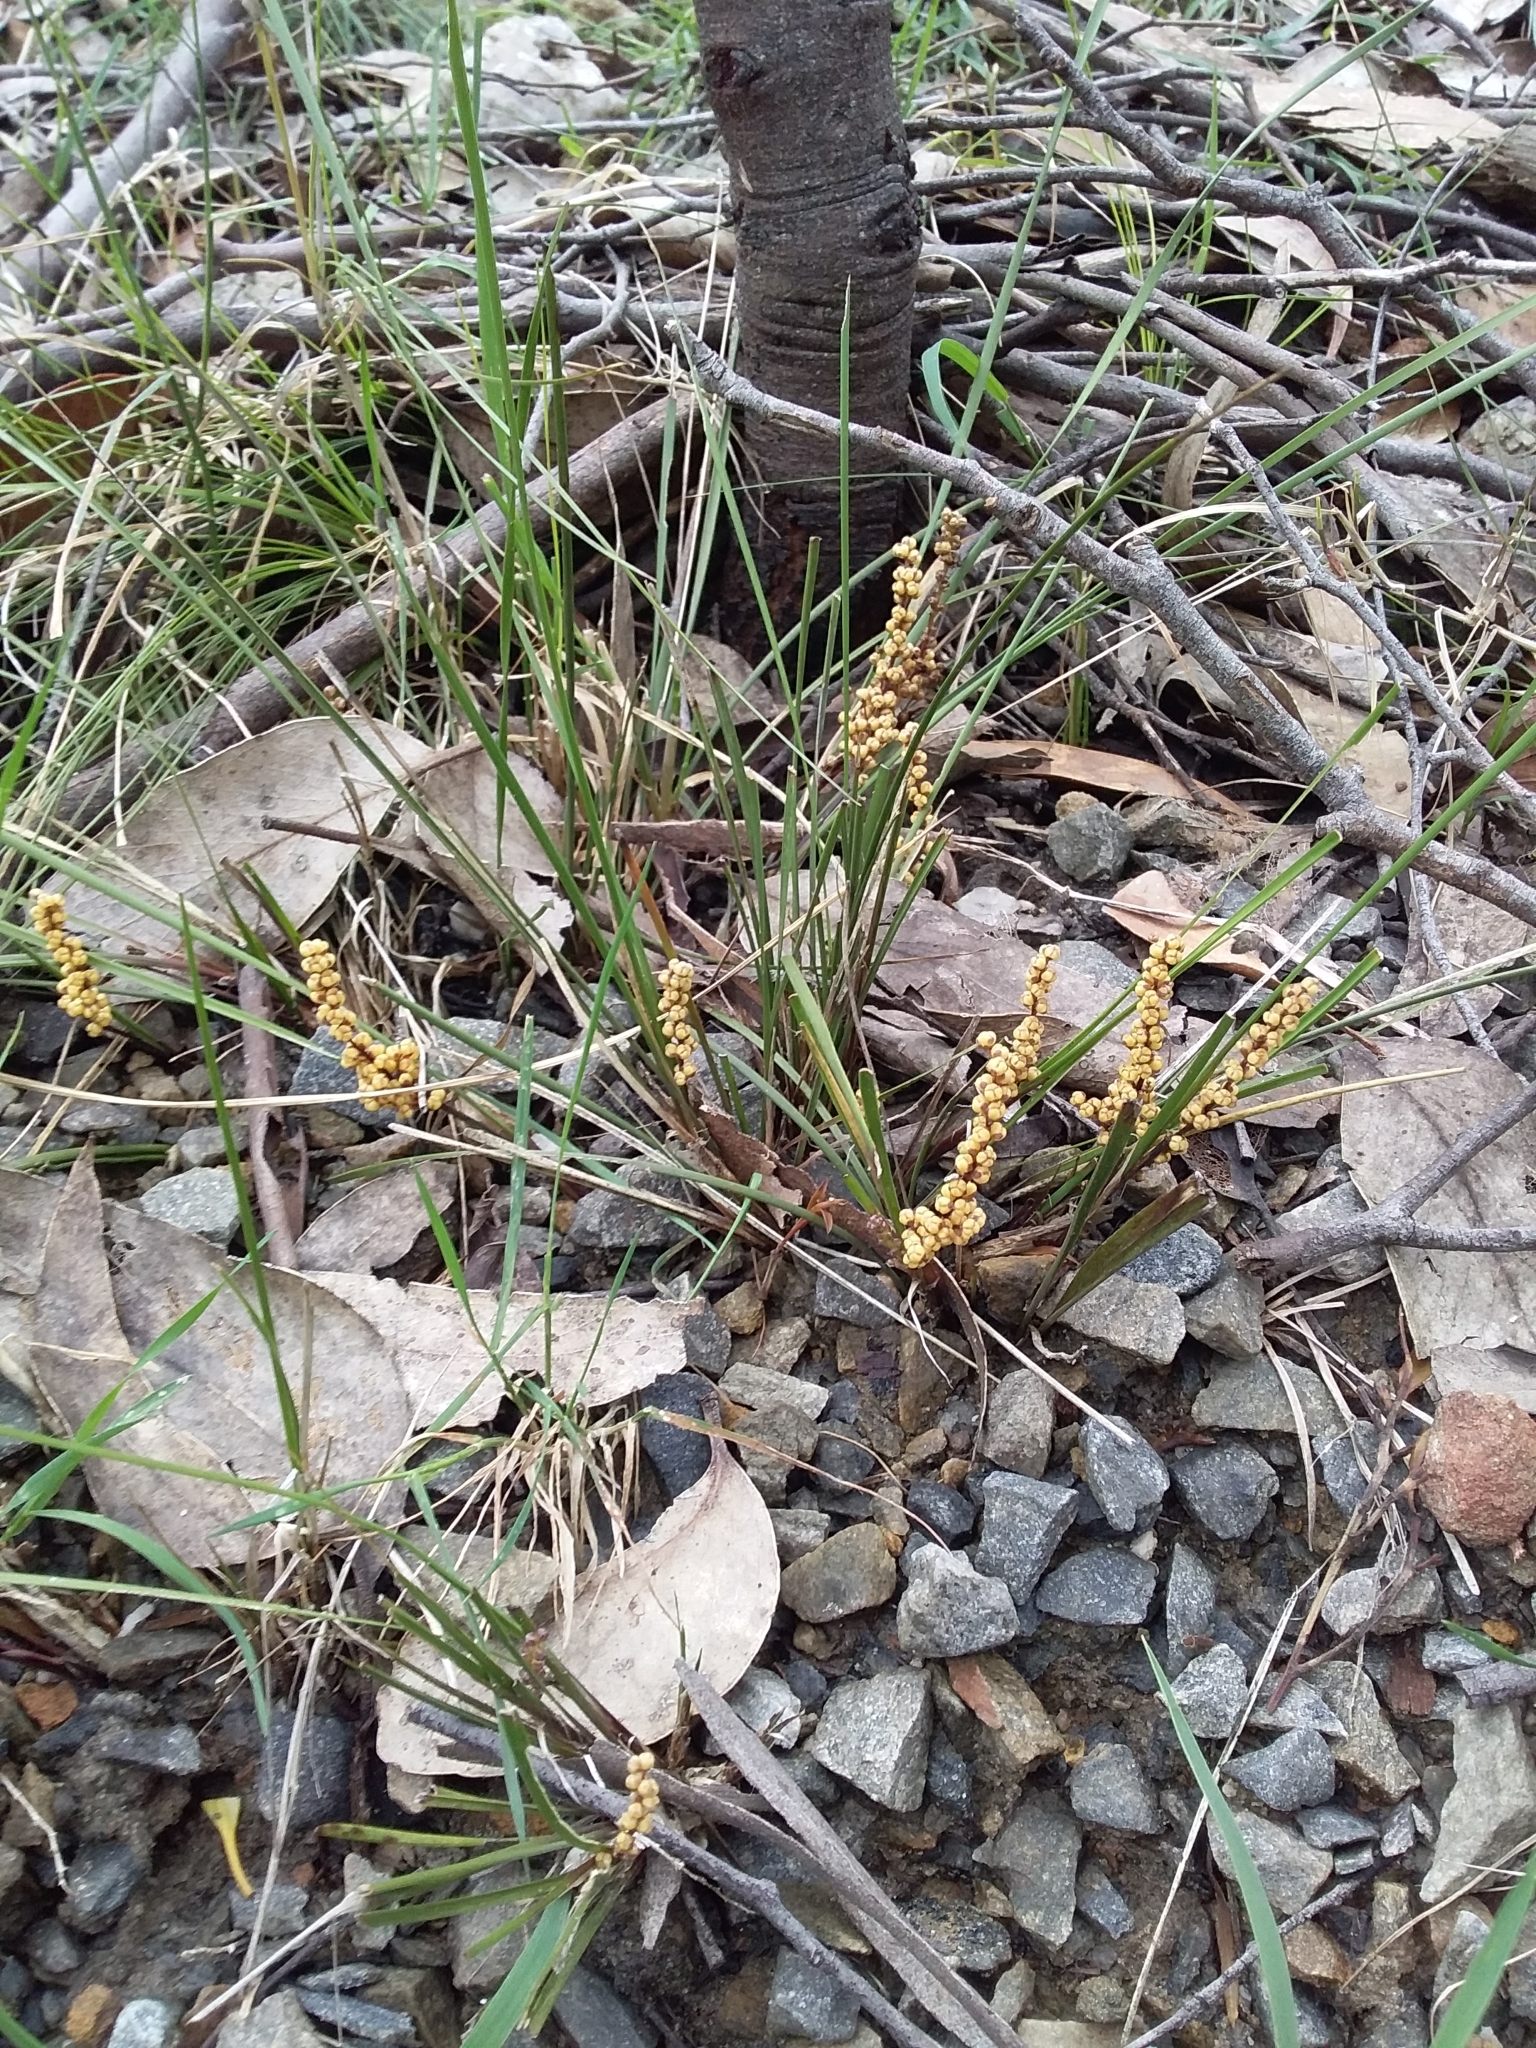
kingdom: Plantae
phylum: Tracheophyta
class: Liliopsida
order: Asparagales
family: Asparagaceae
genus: Lomandra
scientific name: Lomandra sororia
